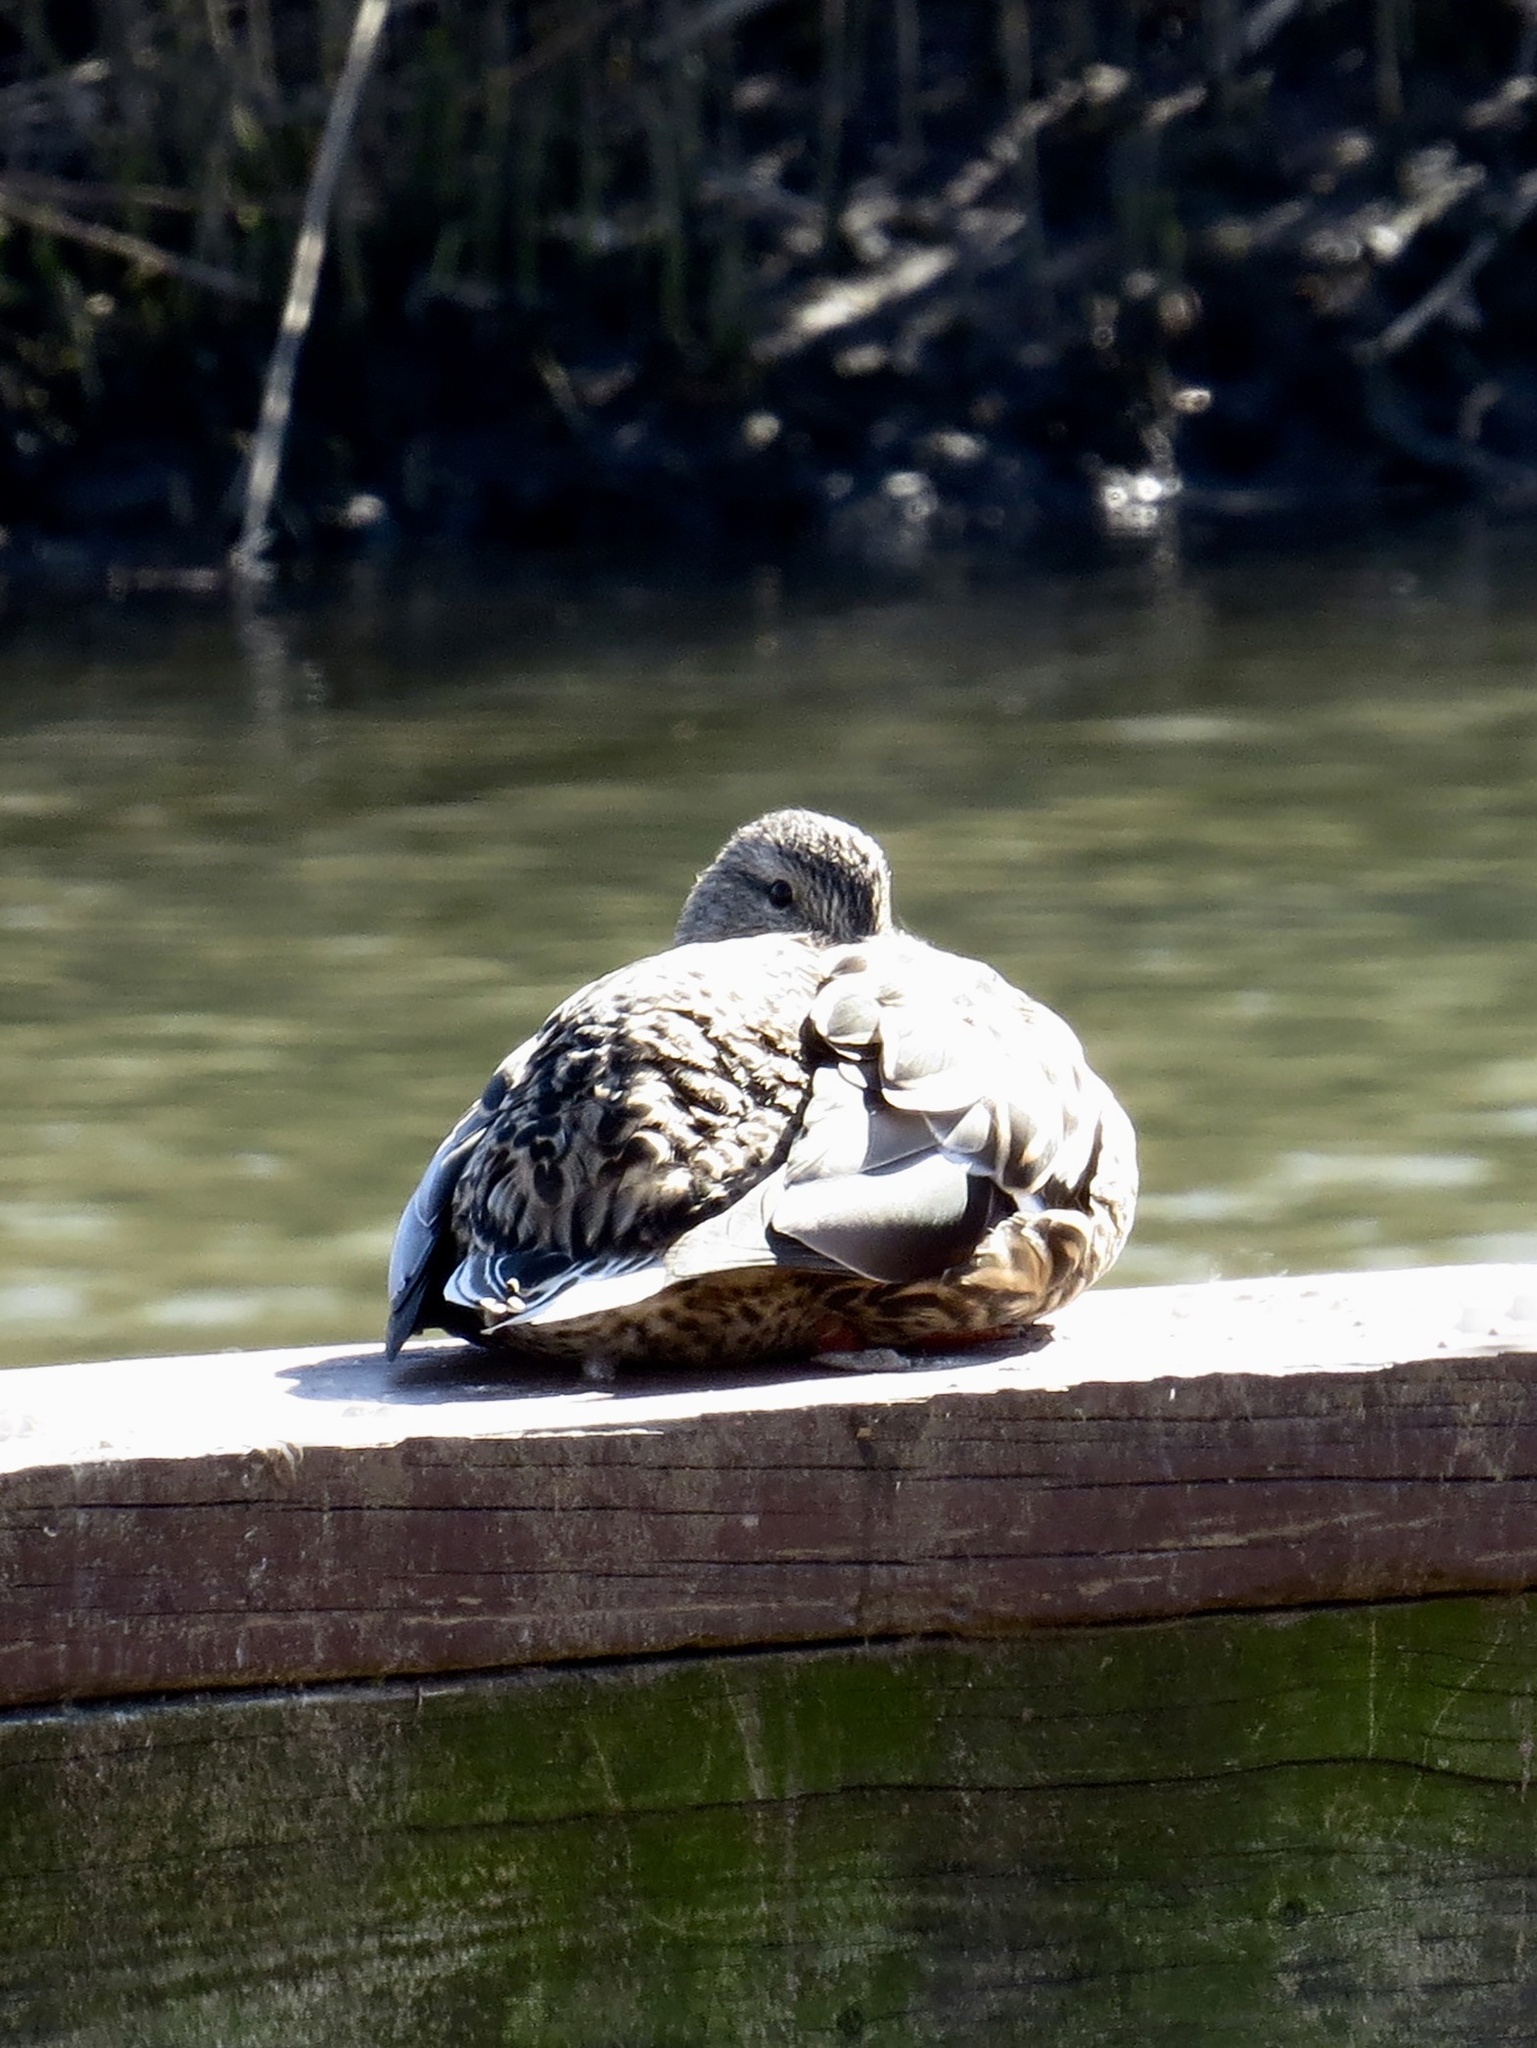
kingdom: Animalia
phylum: Chordata
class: Aves
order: Anseriformes
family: Anatidae
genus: Anas
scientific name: Anas platyrhynchos
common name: Mallard
